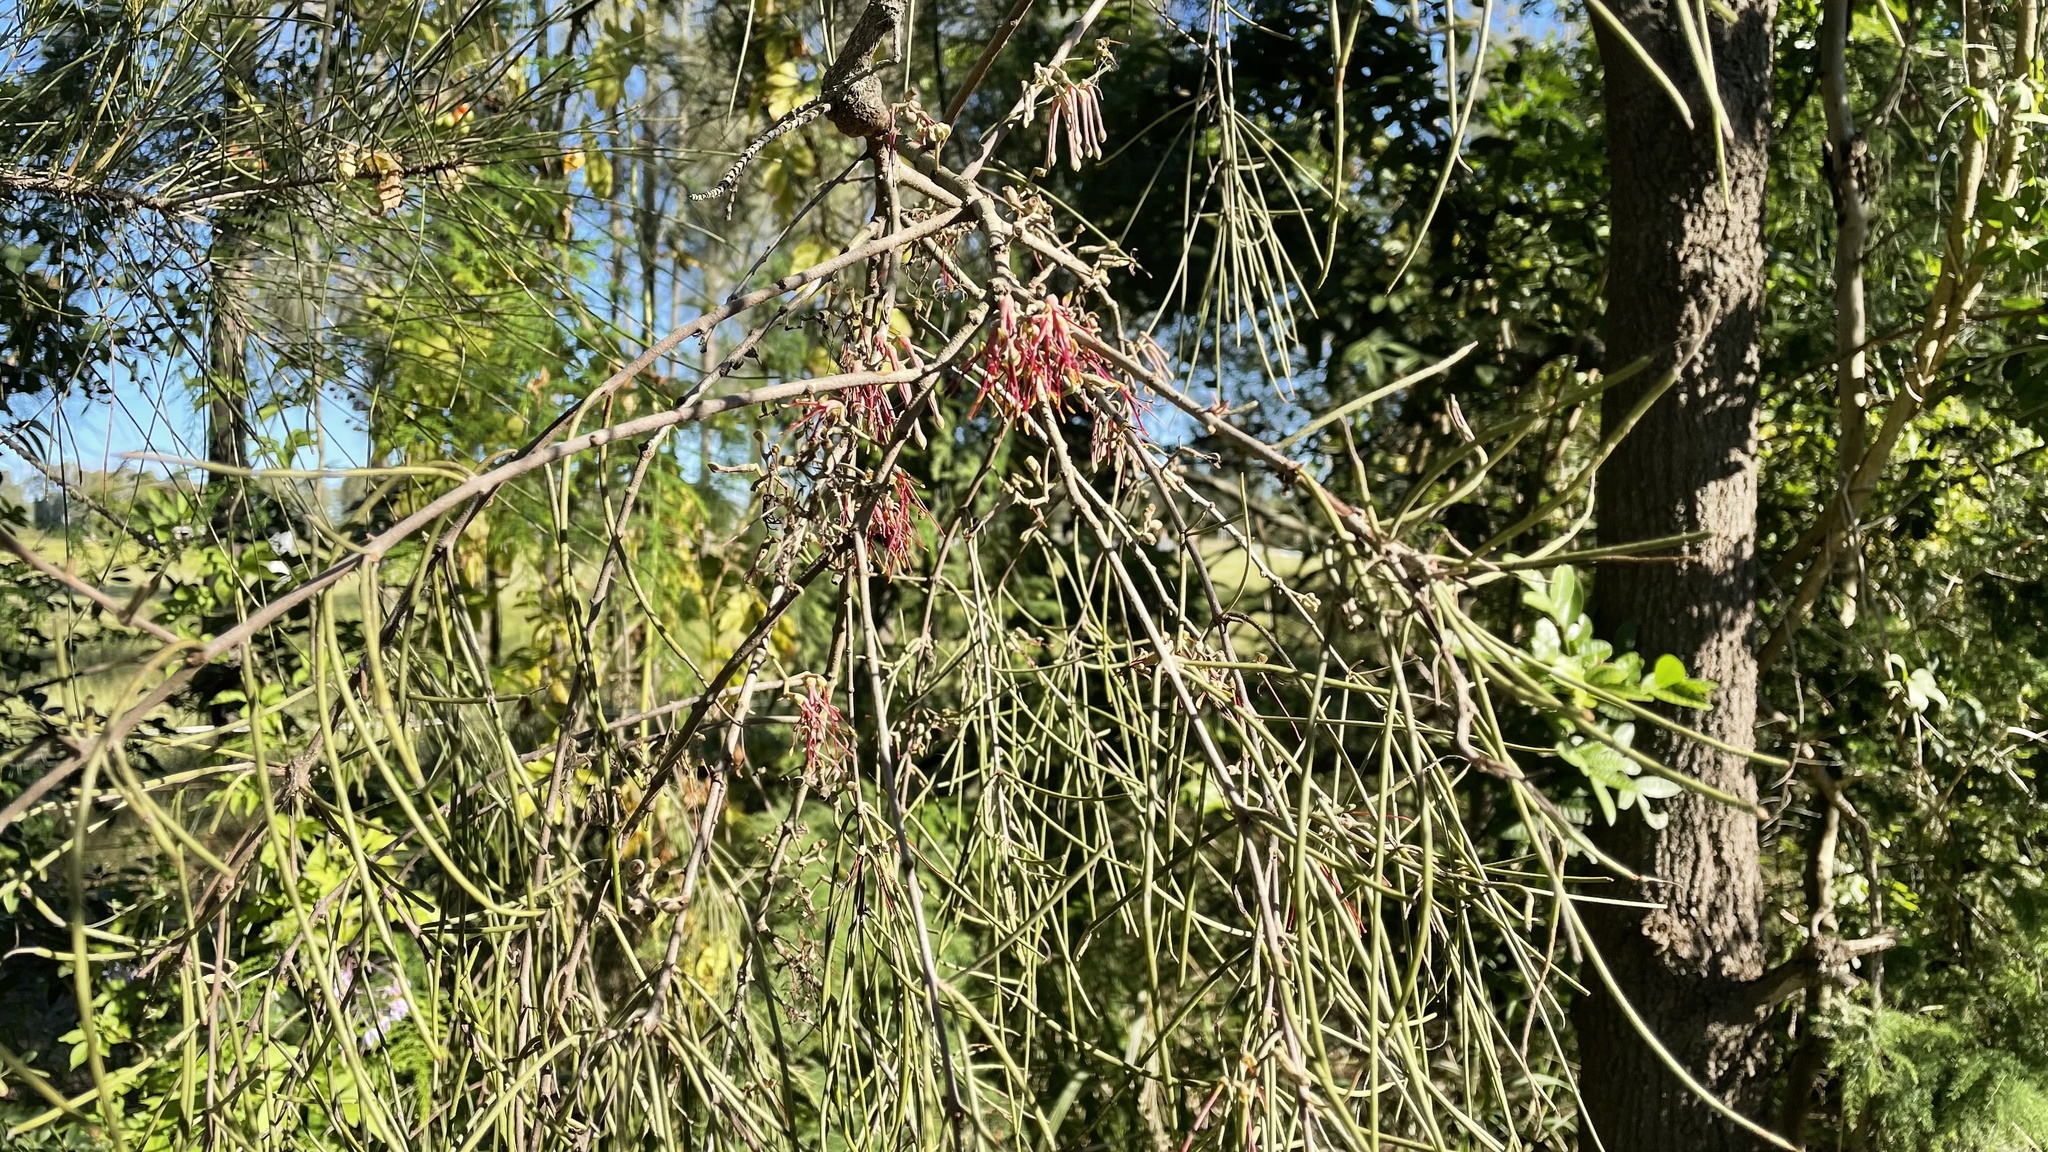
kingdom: Plantae
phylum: Tracheophyta
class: Magnoliopsida
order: Santalales
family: Loranthaceae
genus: Amyema
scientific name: Amyema cambagei
